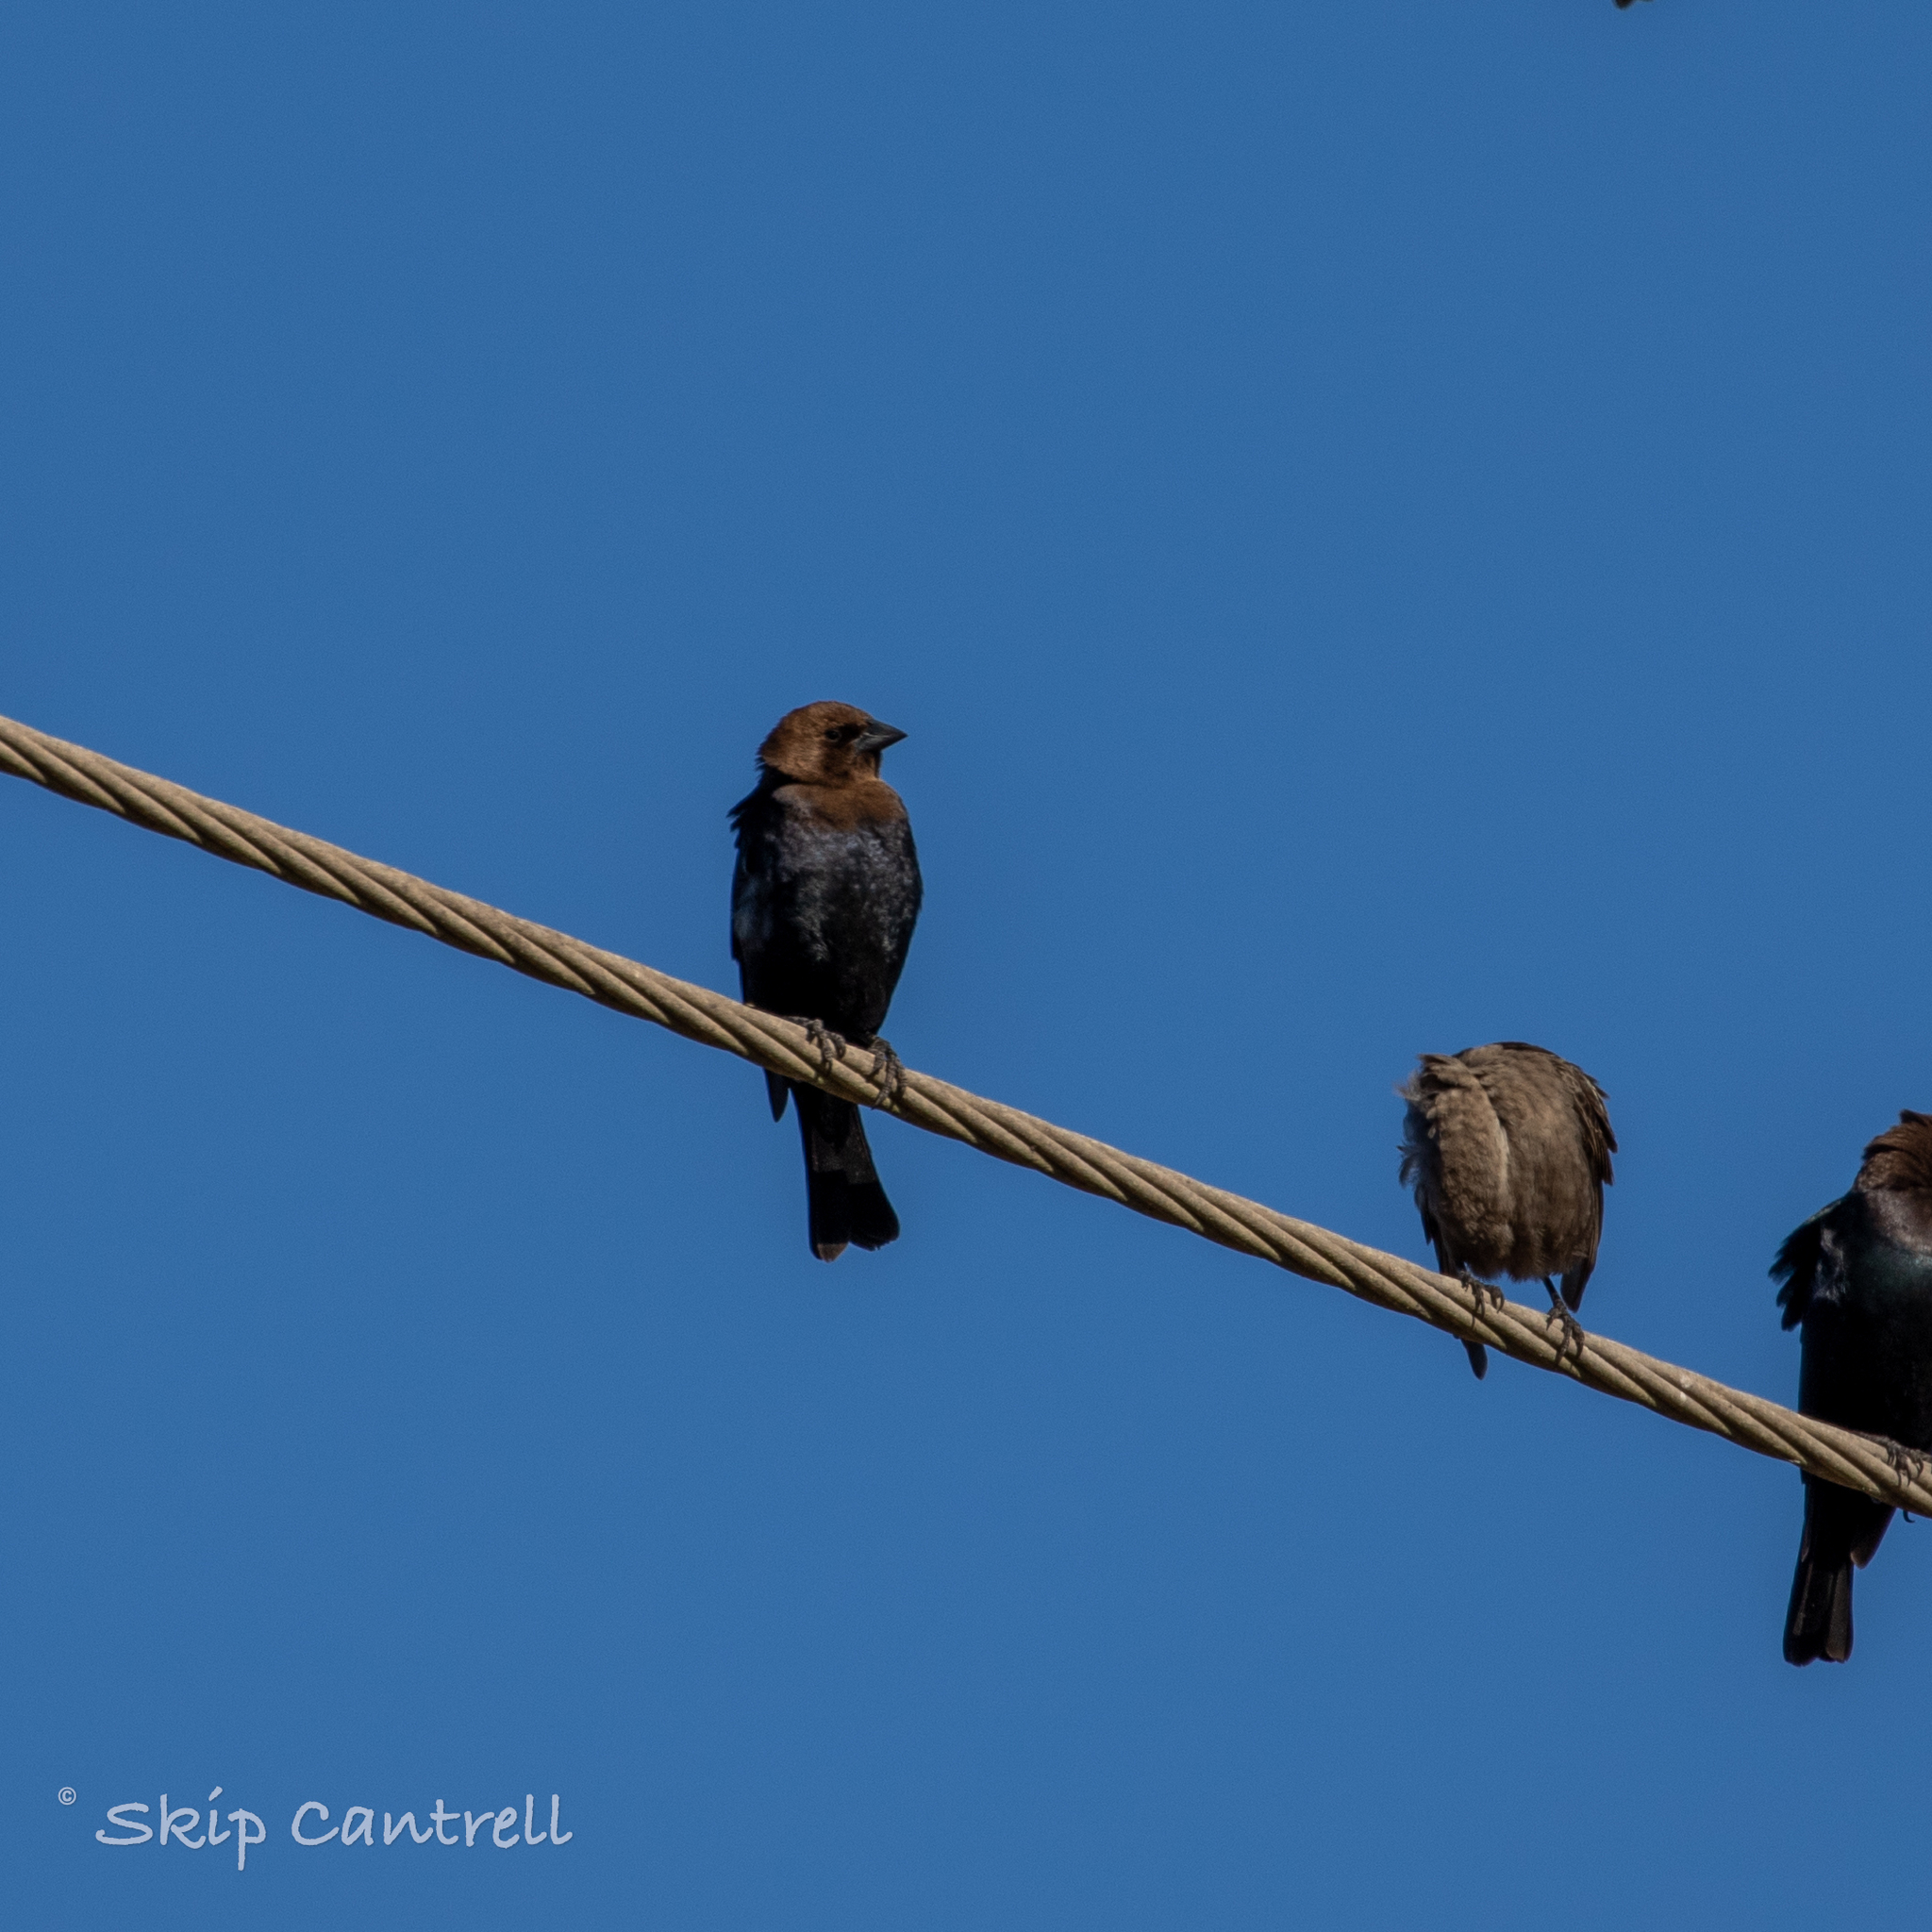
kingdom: Animalia
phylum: Chordata
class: Aves
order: Passeriformes
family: Icteridae
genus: Molothrus
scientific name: Molothrus ater
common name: Brown-headed cowbird
